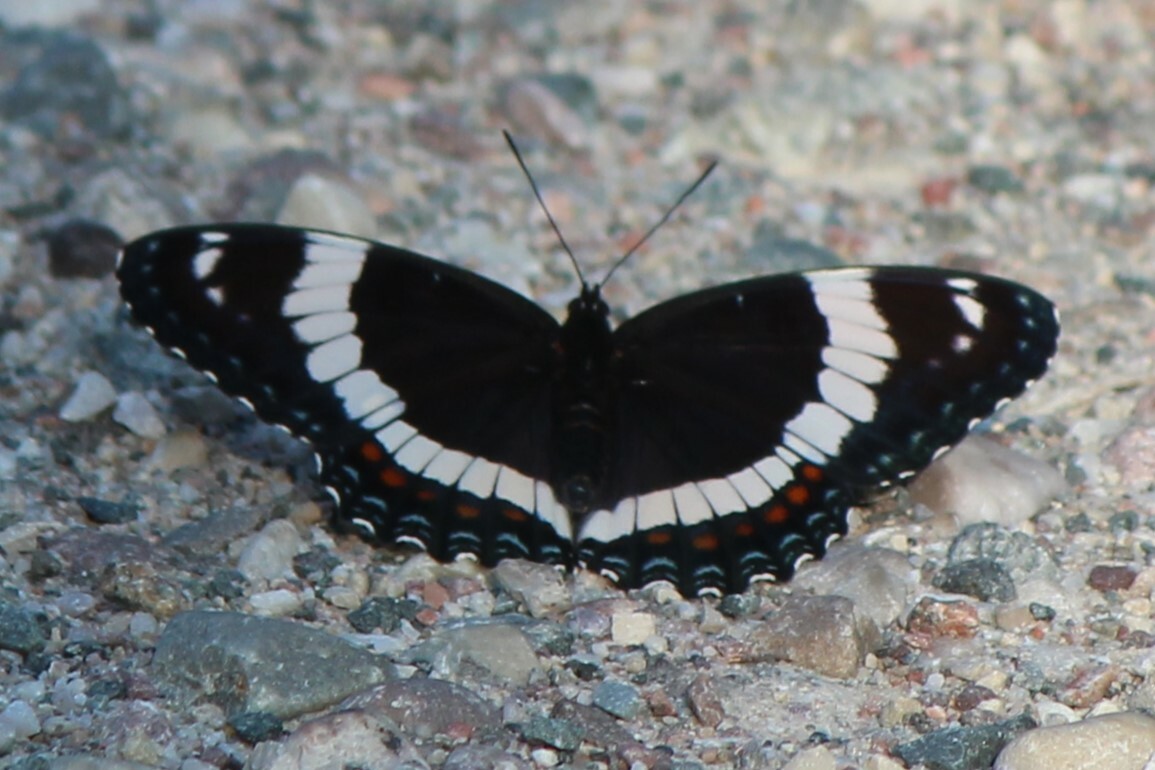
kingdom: Animalia
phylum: Arthropoda
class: Insecta
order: Lepidoptera
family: Nymphalidae
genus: Limenitis
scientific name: Limenitis arthemis
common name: Red-spotted admiral
